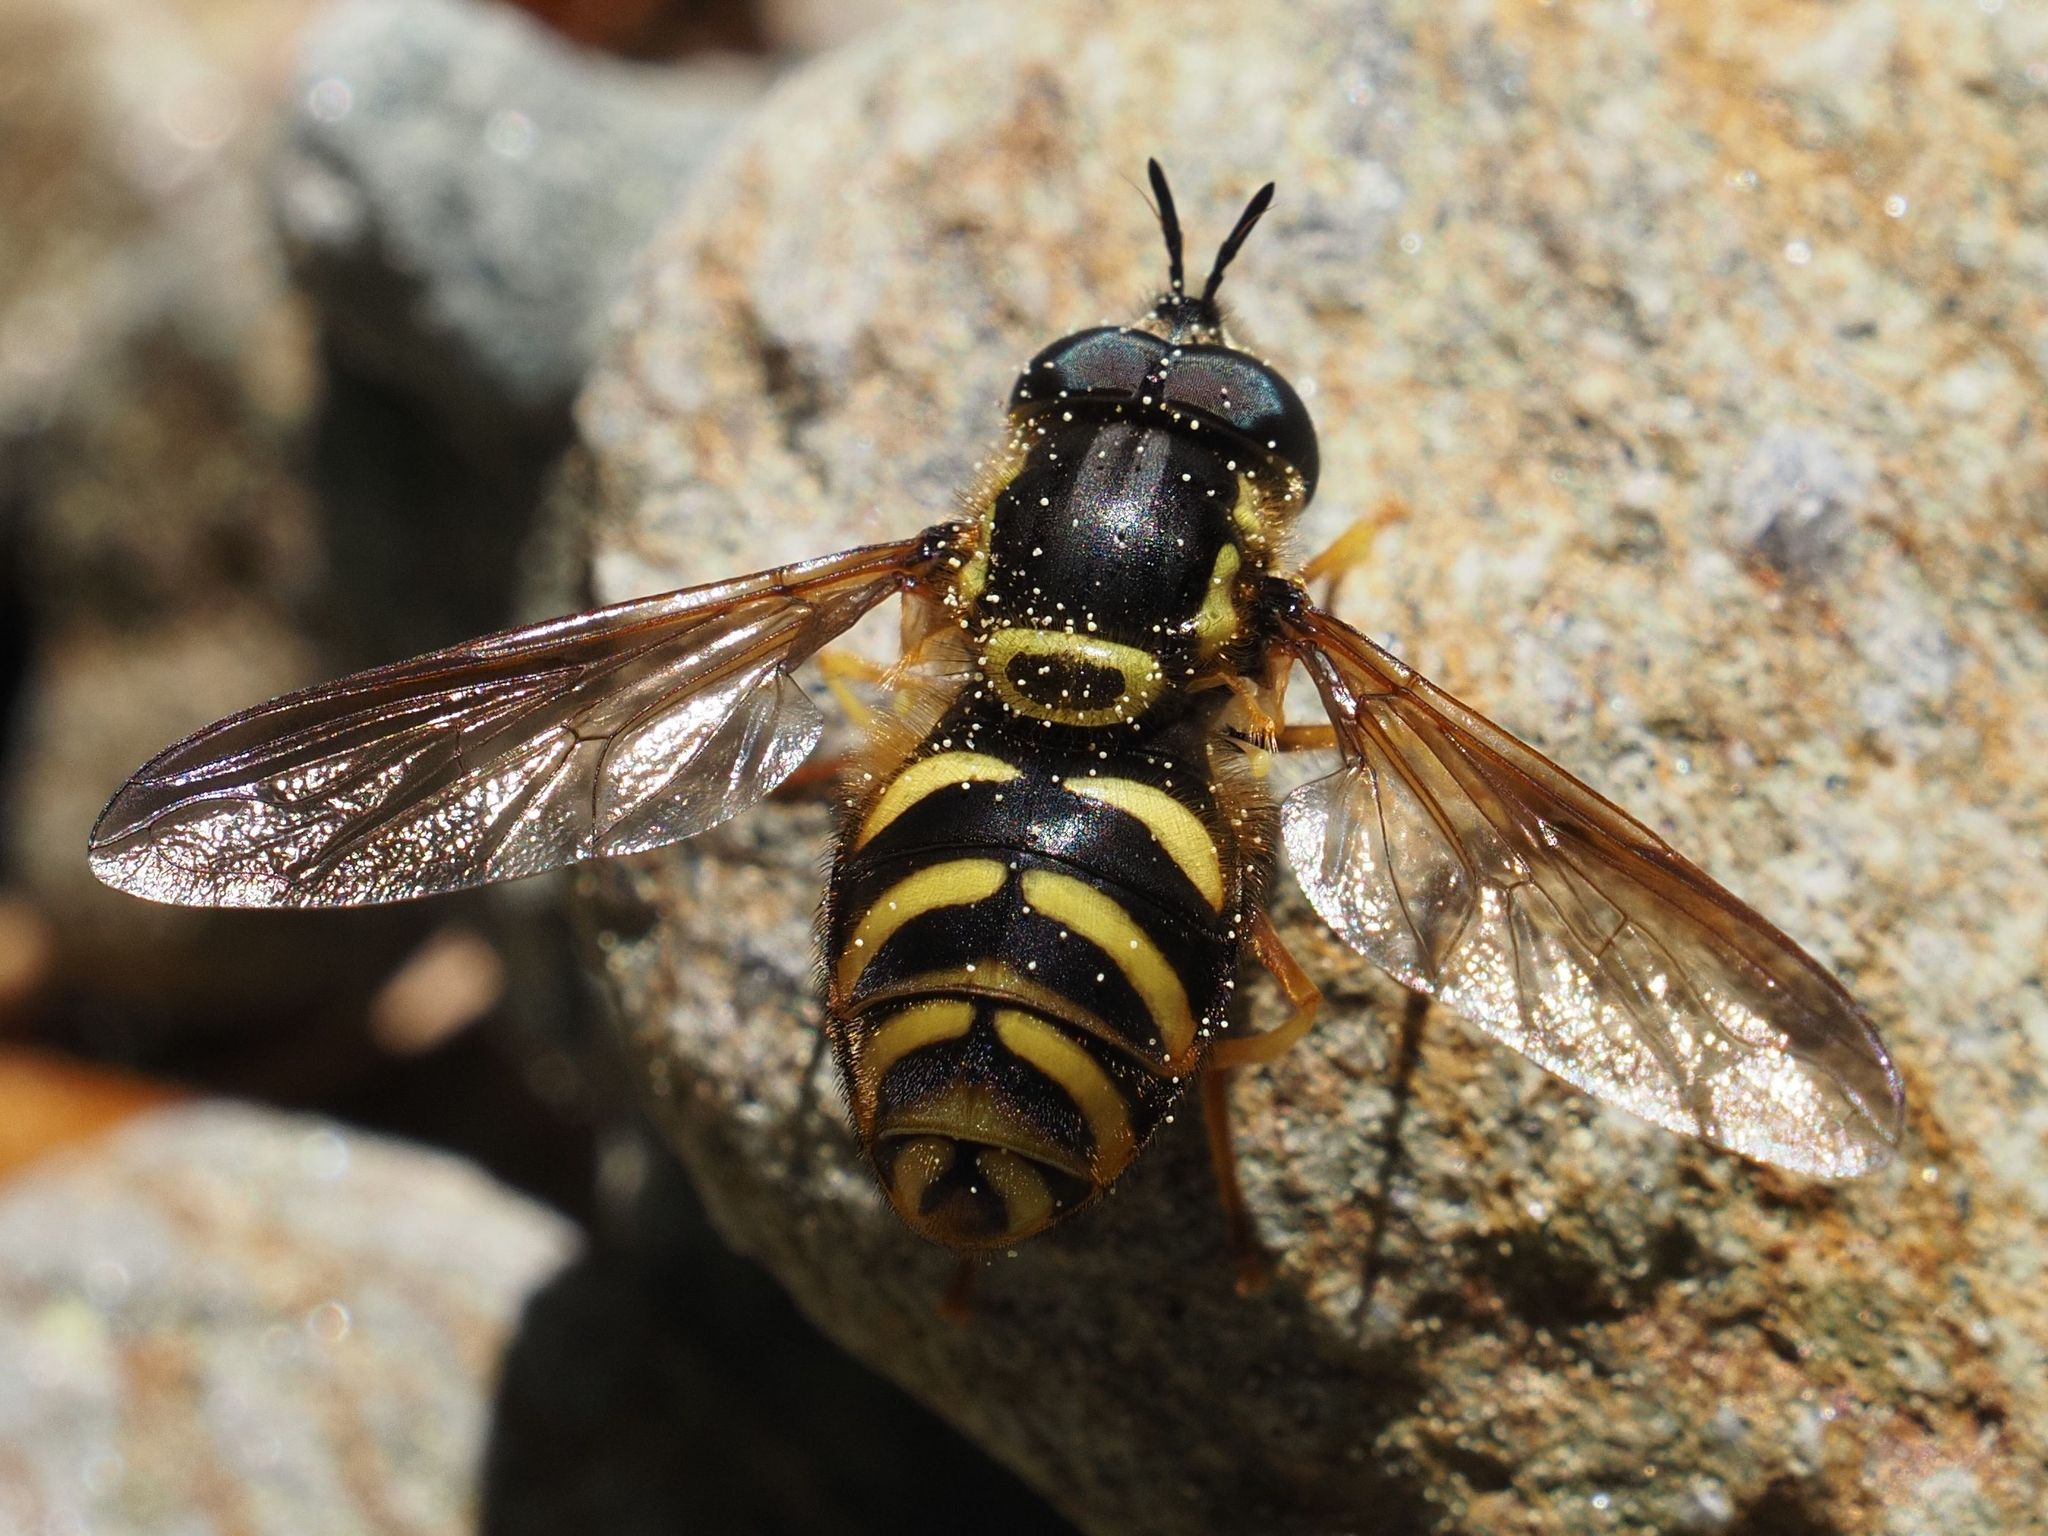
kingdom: Animalia
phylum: Arthropoda
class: Insecta
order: Diptera
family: Syrphidae
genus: Chrysotoxum
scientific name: Chrysotoxum intermedium
